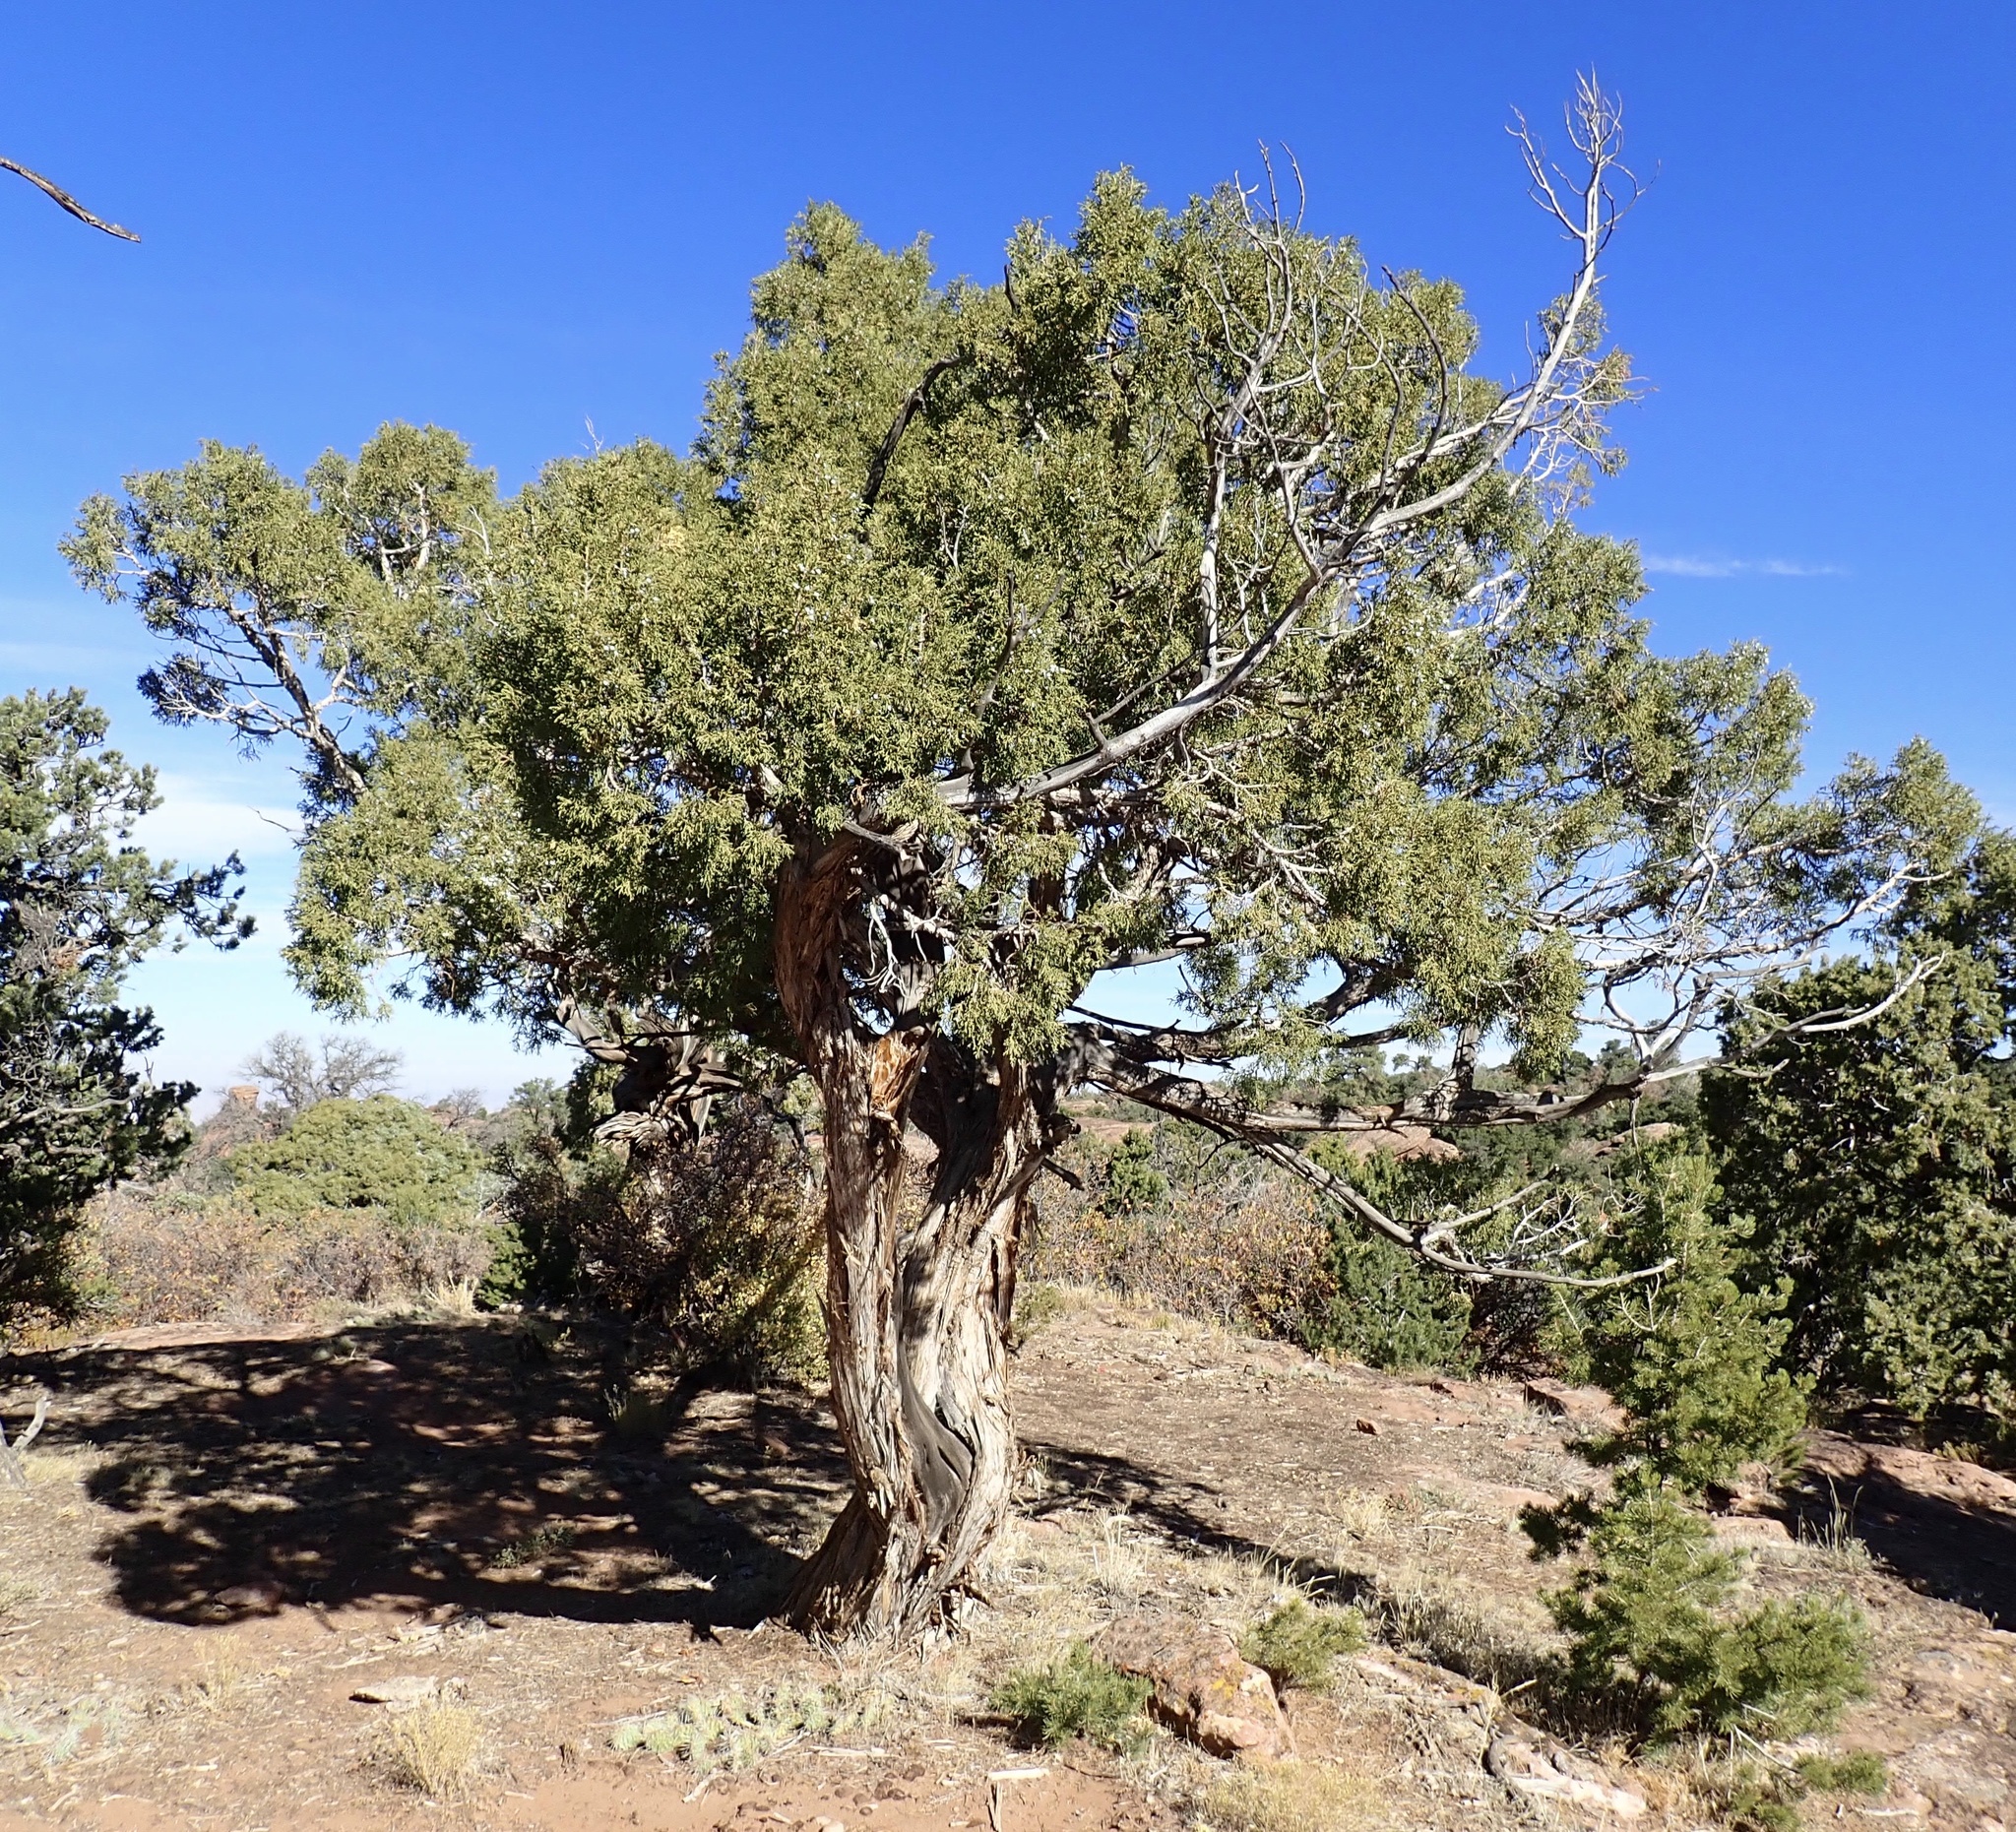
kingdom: Plantae
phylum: Tracheophyta
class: Pinopsida
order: Pinales
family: Cupressaceae
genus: Juniperus
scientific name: Juniperus osteosperma
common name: Utah juniper
